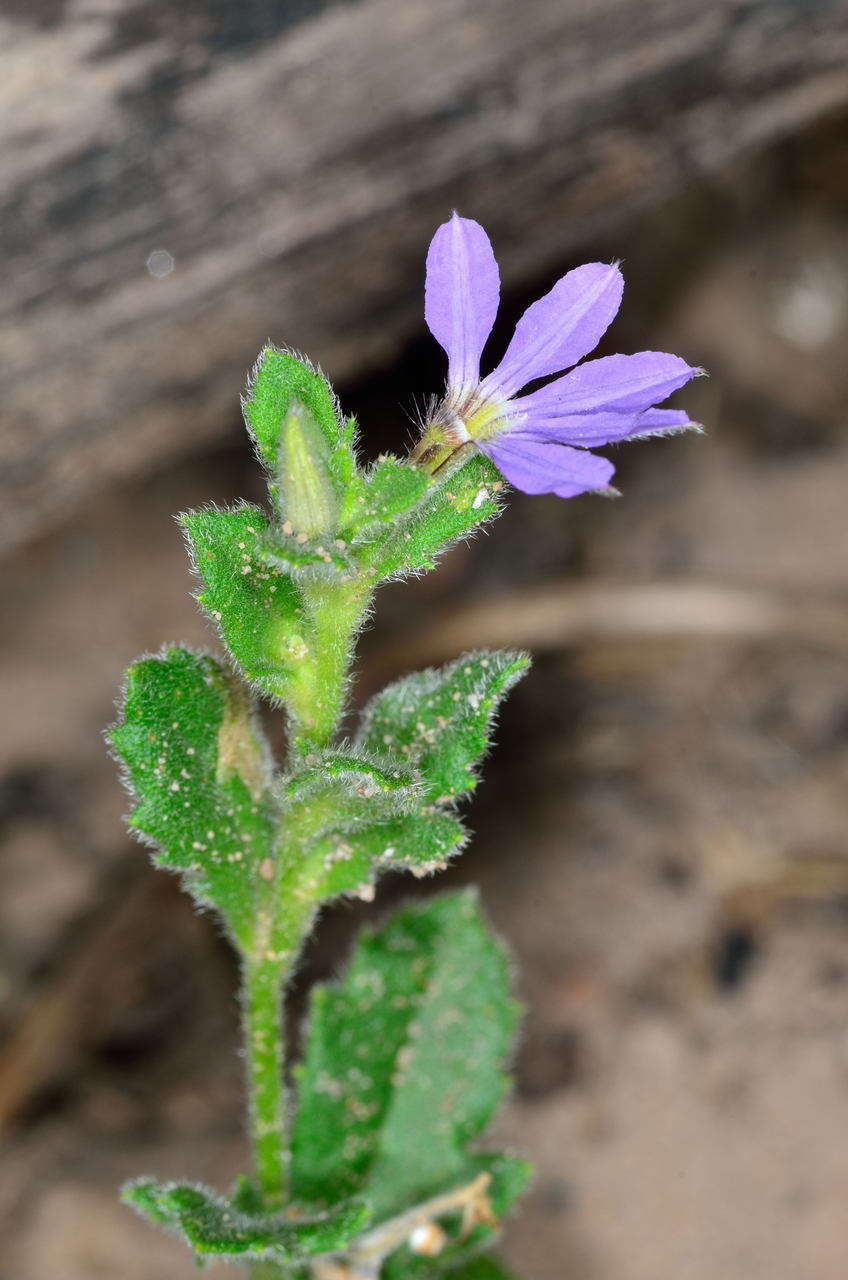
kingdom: Plantae
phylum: Tracheophyta
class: Magnoliopsida
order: Asterales
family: Goodeniaceae
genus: Scaevola
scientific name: Scaevola aemula
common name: Common fanflower
